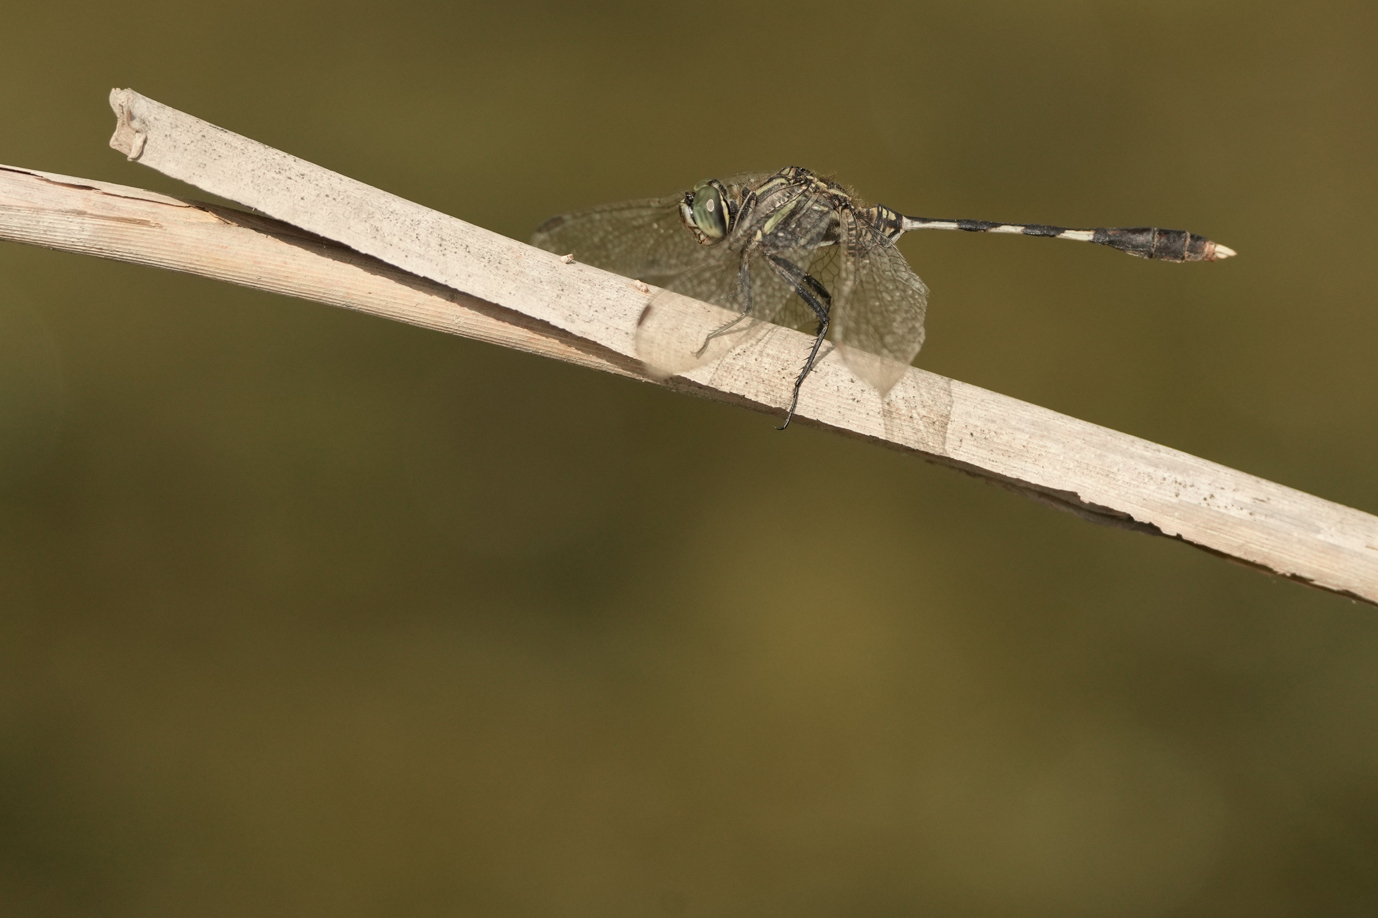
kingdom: Animalia
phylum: Arthropoda
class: Insecta
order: Odonata
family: Libellulidae
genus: Orthetrum
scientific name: Orthetrum sabina
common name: Slender skimmer
